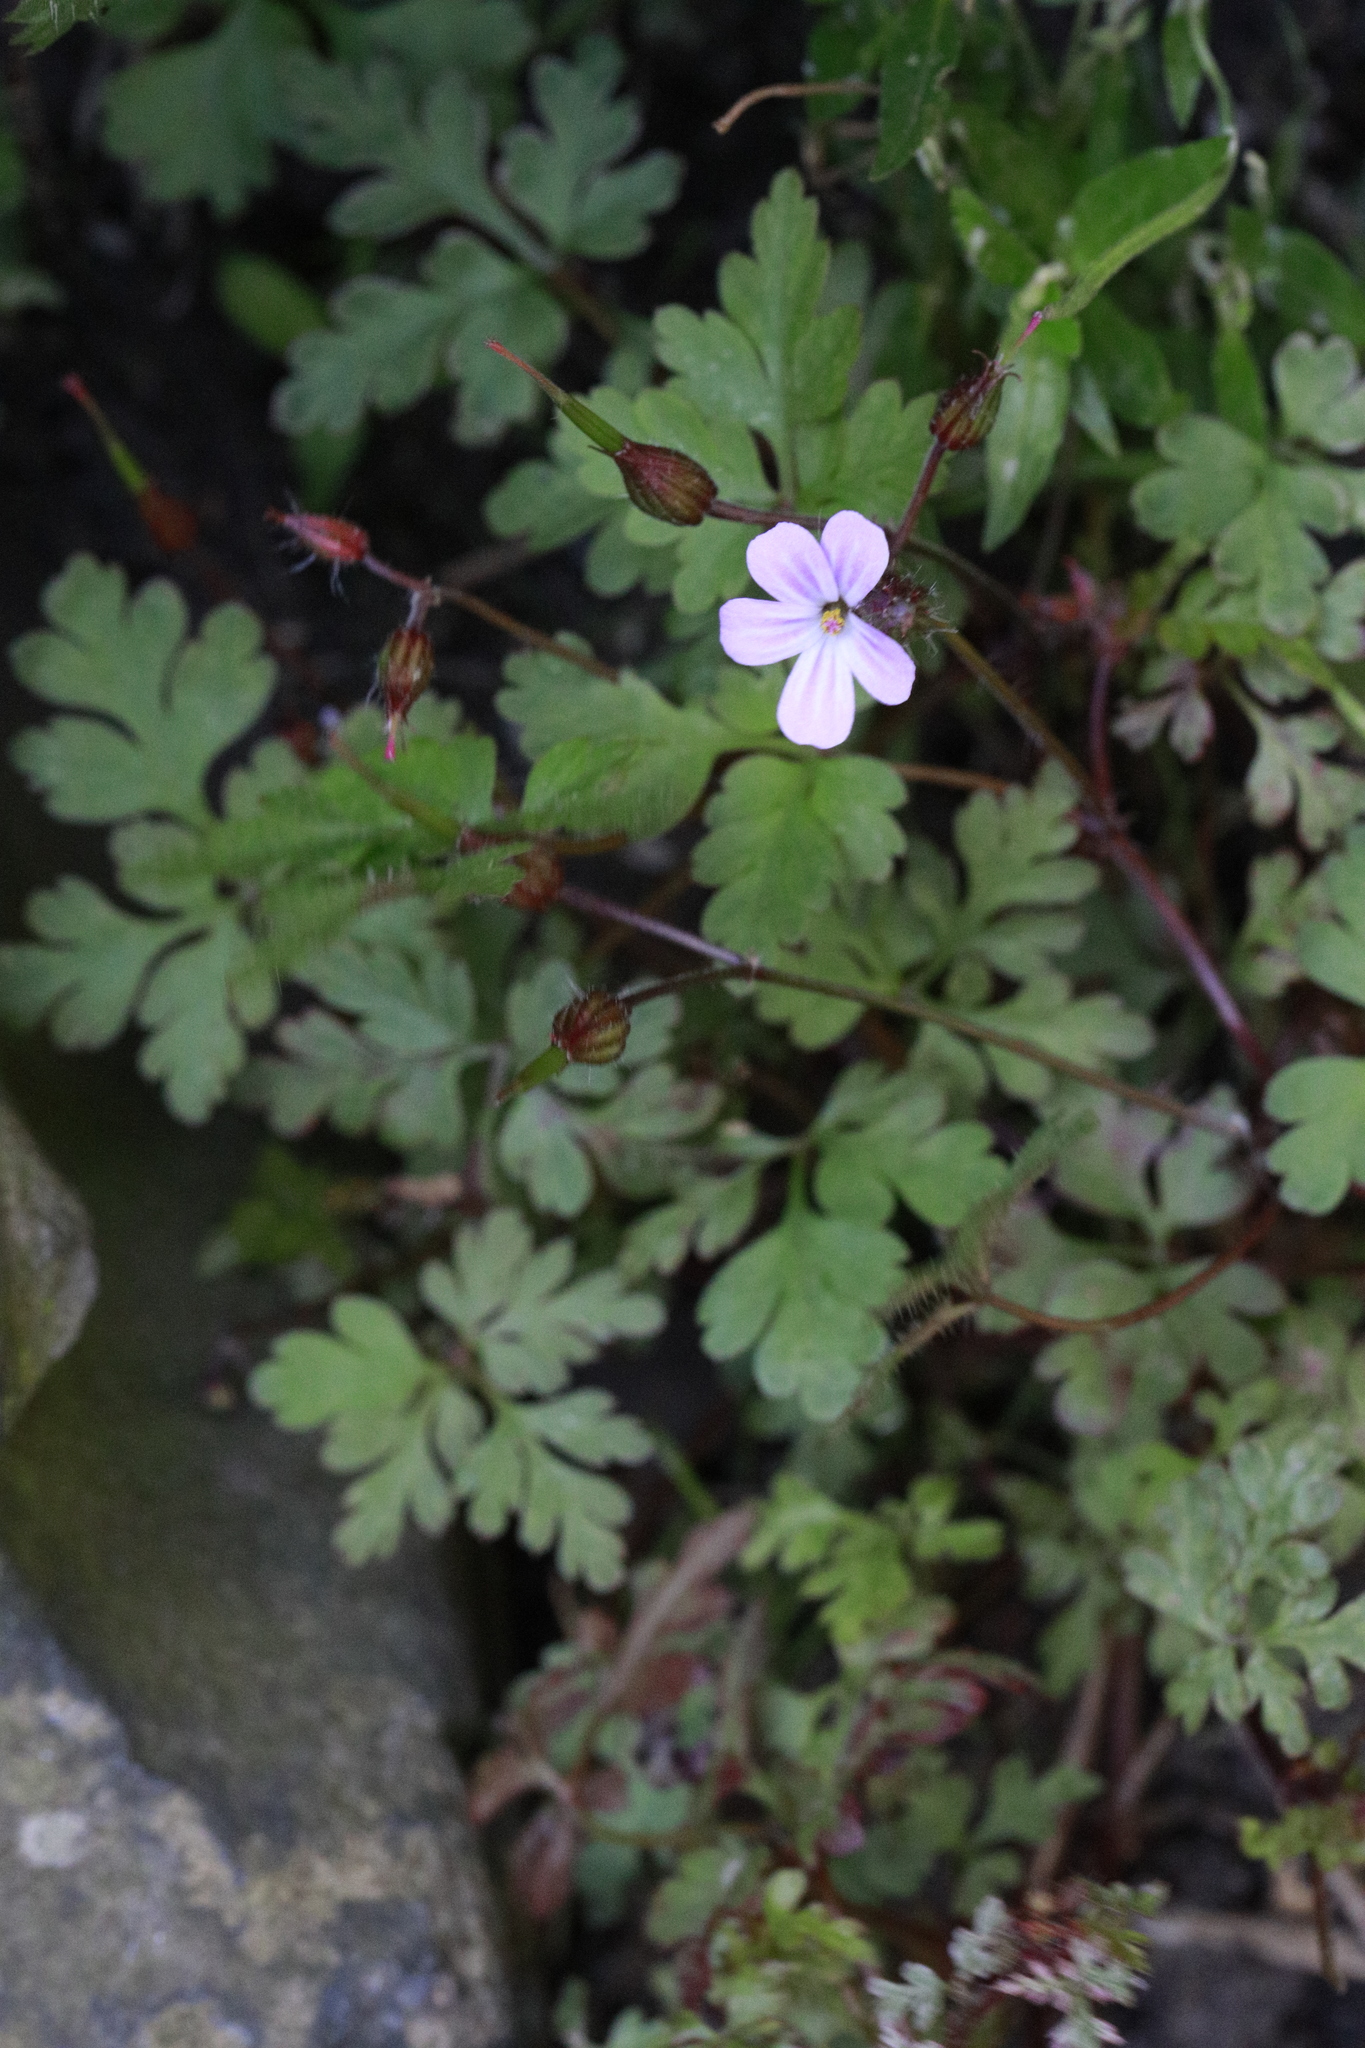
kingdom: Plantae
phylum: Tracheophyta
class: Magnoliopsida
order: Geraniales
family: Geraniaceae
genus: Geranium
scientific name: Geranium robertianum
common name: Herb-robert
